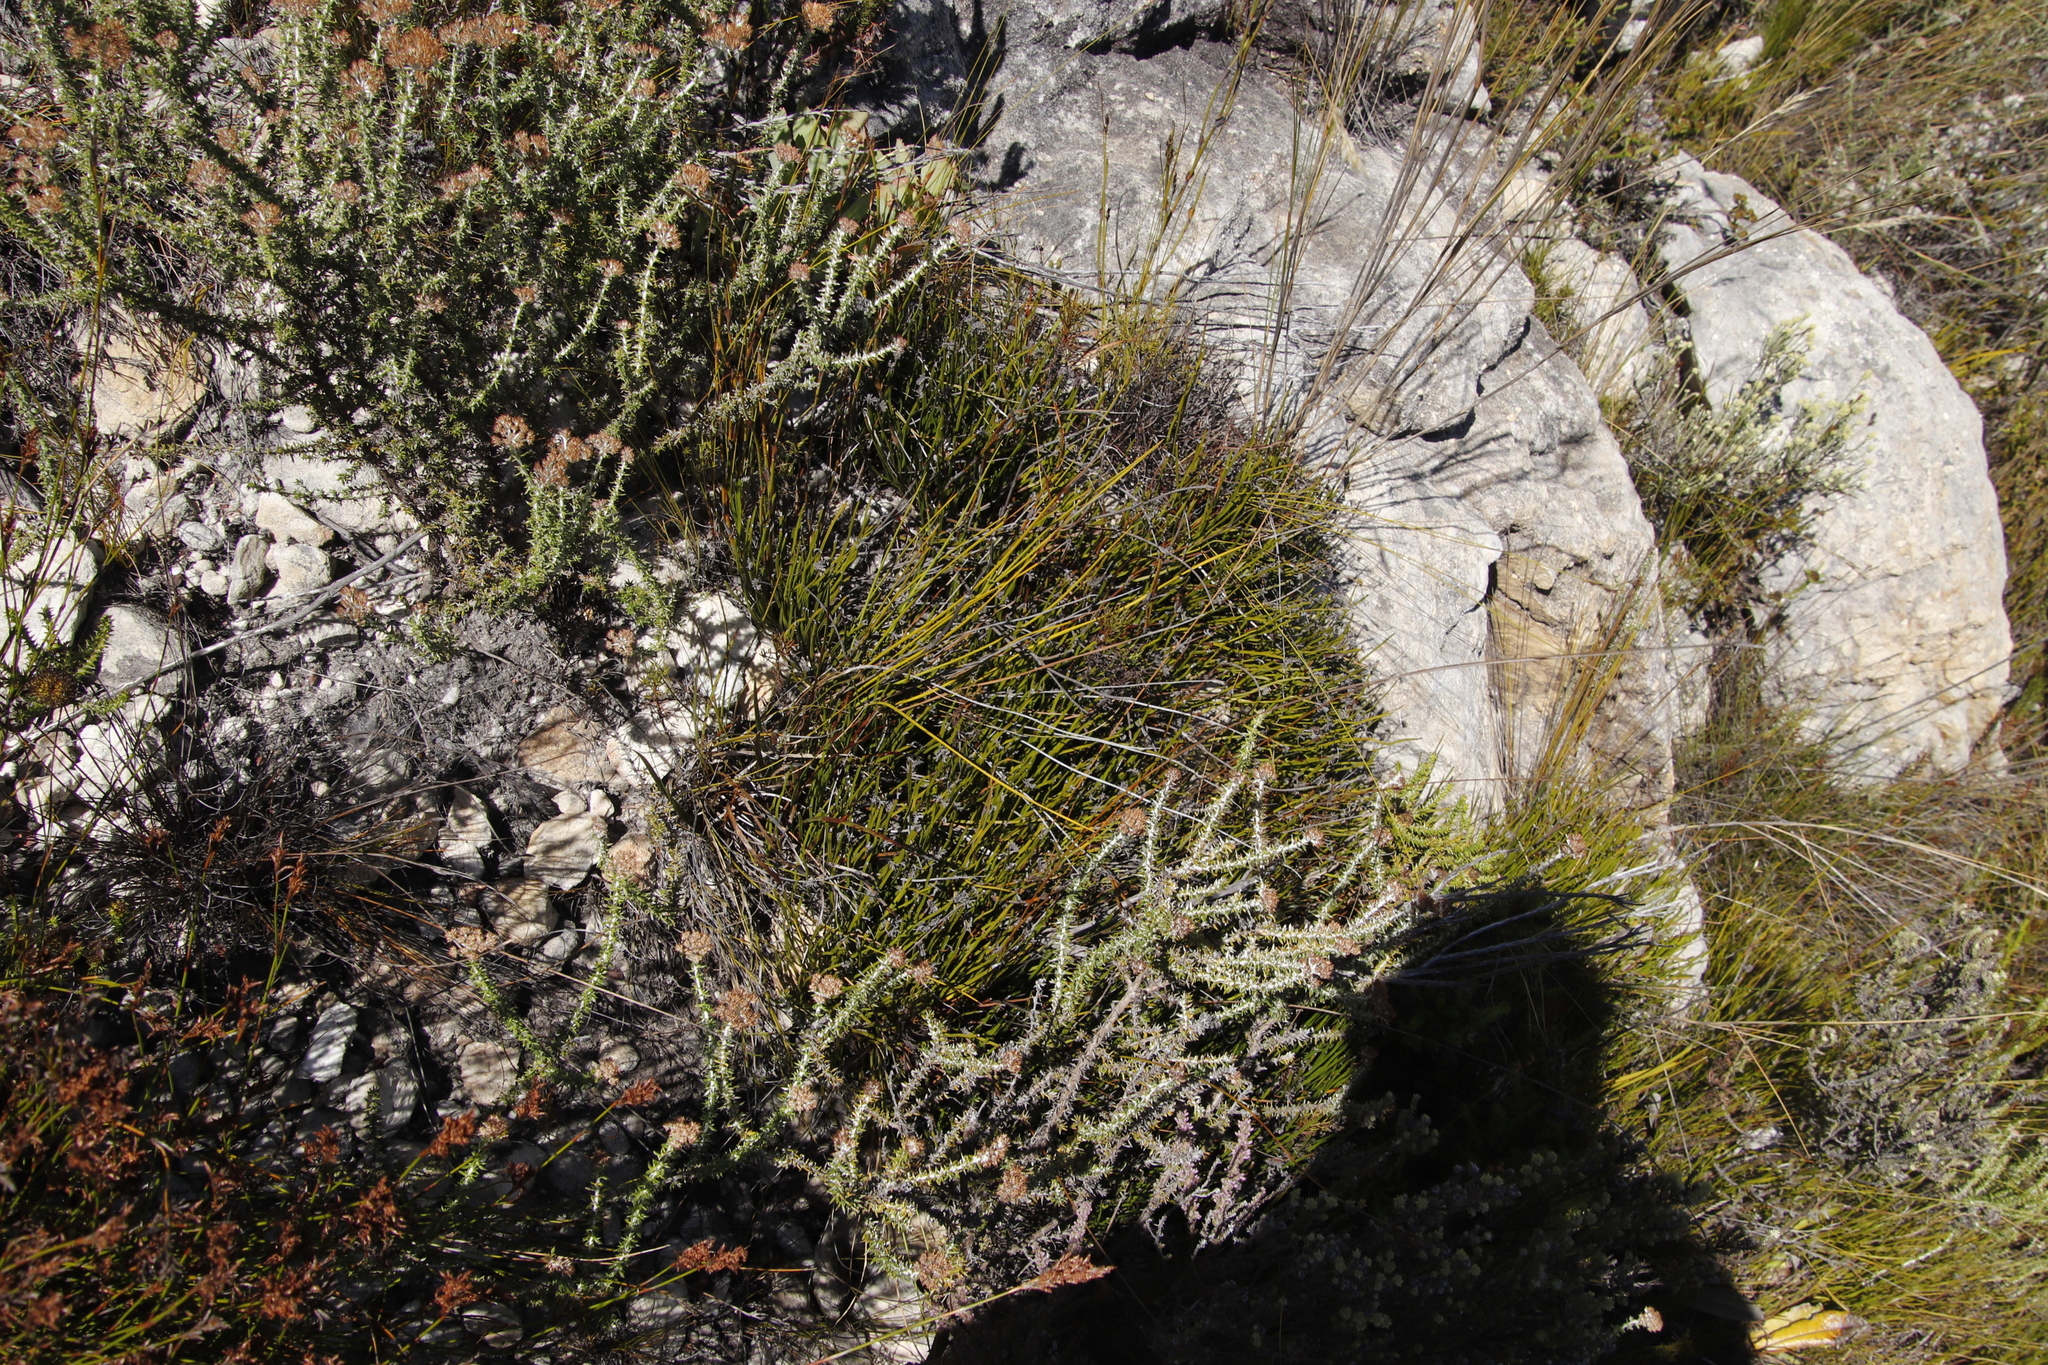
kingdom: Plantae
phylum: Tracheophyta
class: Polypodiopsida
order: Schizaeales
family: Schizaeaceae
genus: Schizaea
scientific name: Schizaea pectinata
